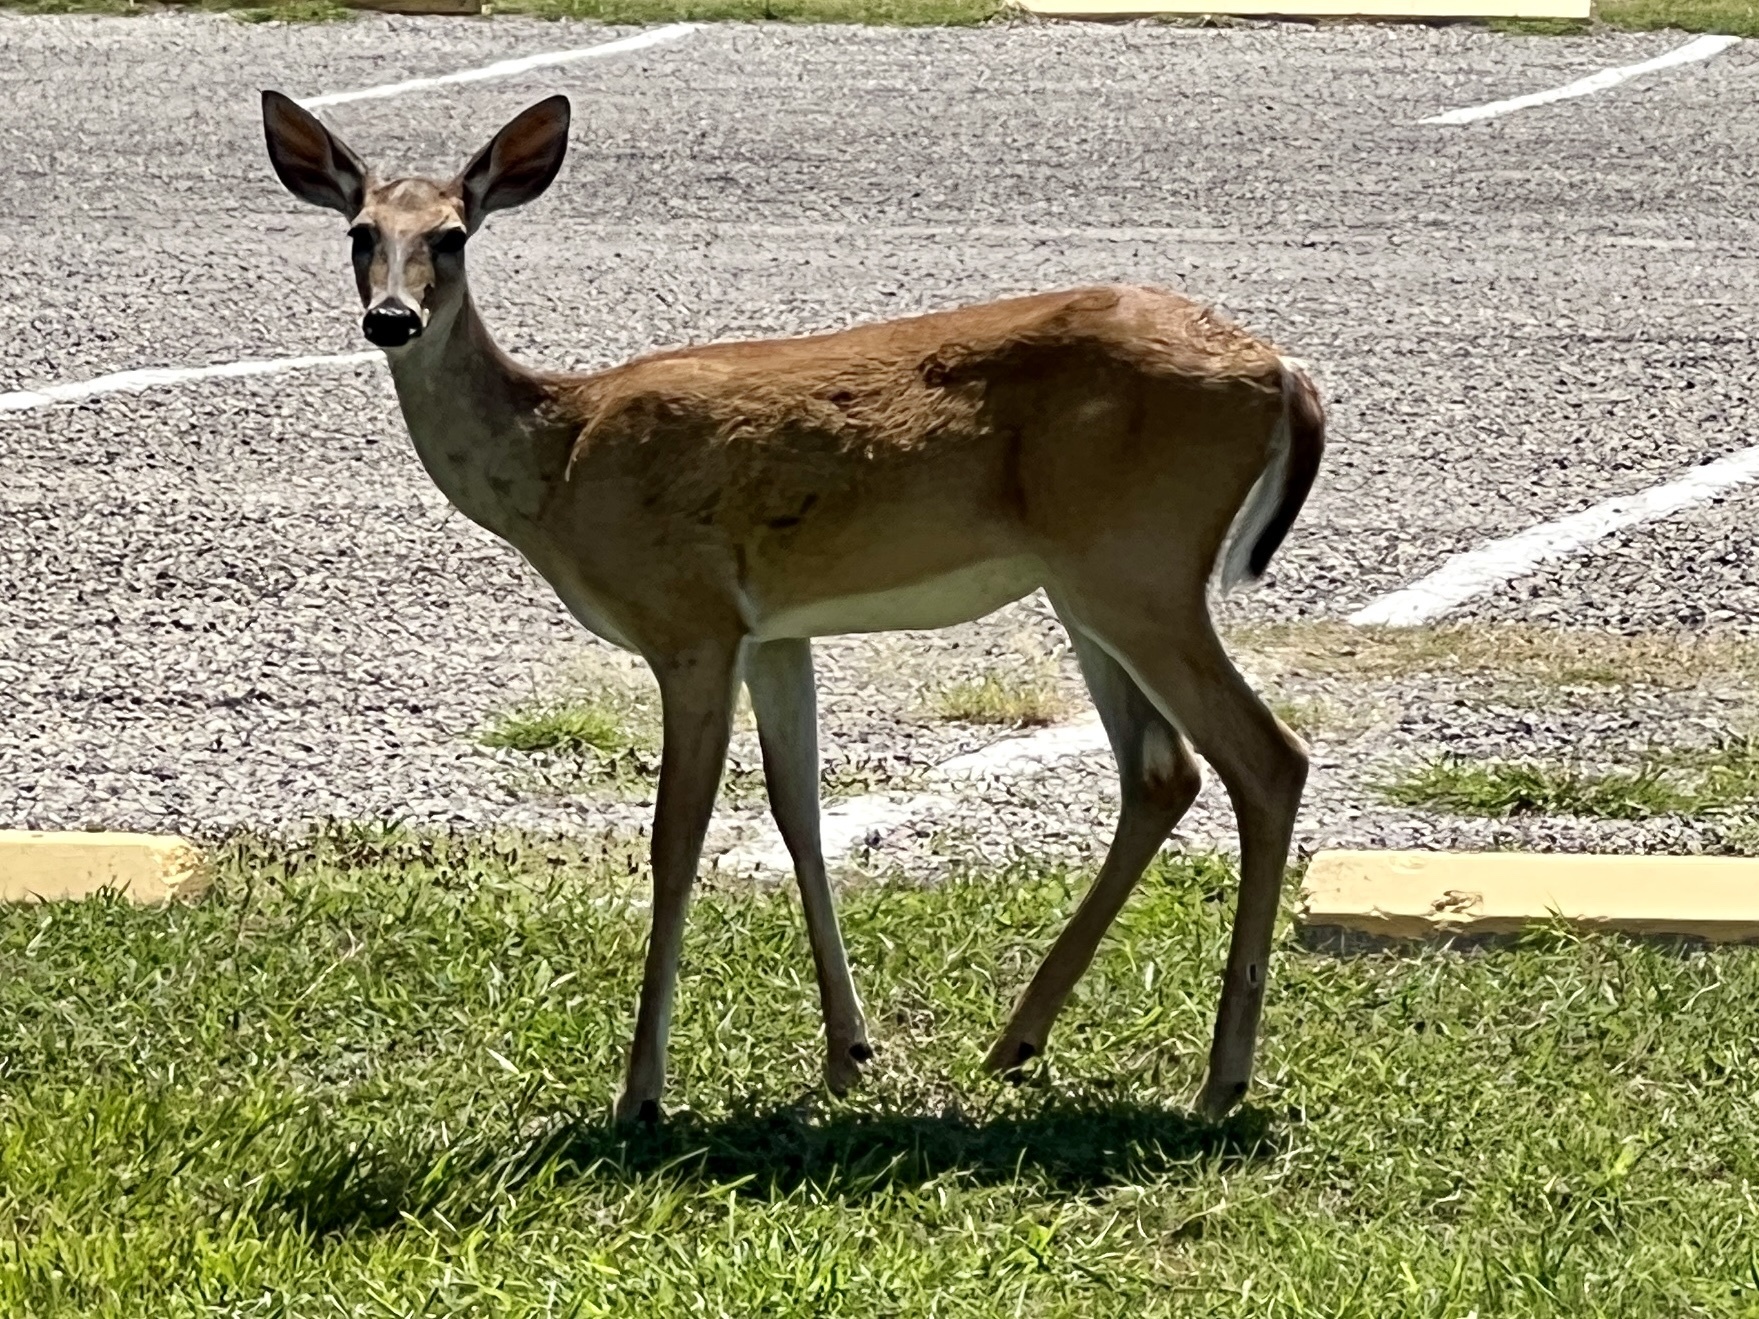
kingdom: Animalia
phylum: Chordata
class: Mammalia
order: Artiodactyla
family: Cervidae
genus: Odocoileus
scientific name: Odocoileus virginianus
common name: White-tailed deer
